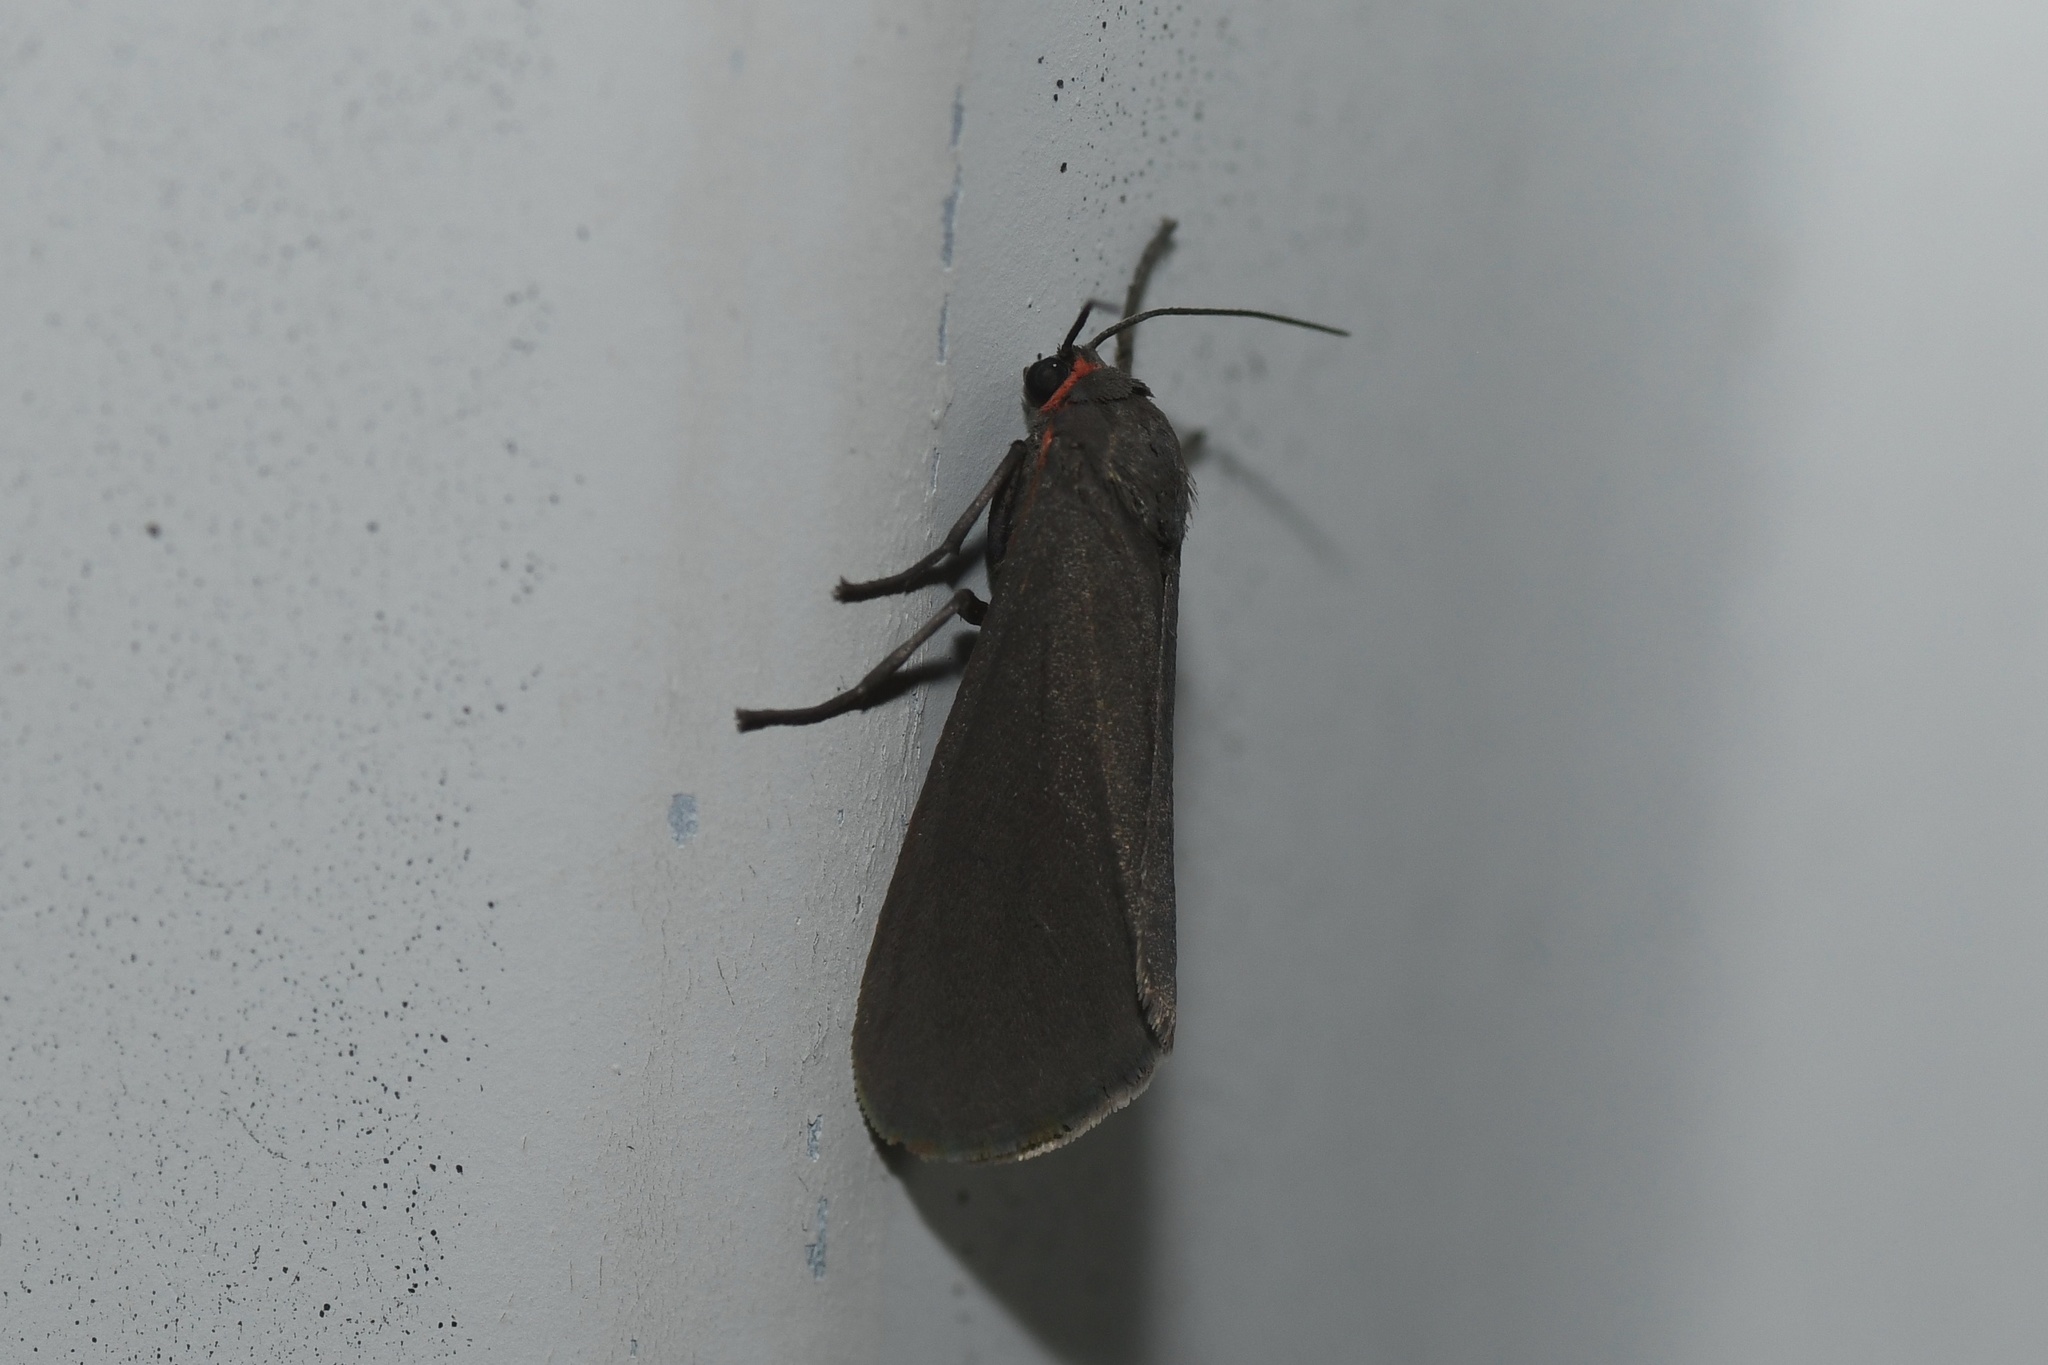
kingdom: Animalia
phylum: Arthropoda
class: Insecta
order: Lepidoptera
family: Erebidae
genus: Virbia
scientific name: Virbia laeta
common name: Joyful holomelina moth
